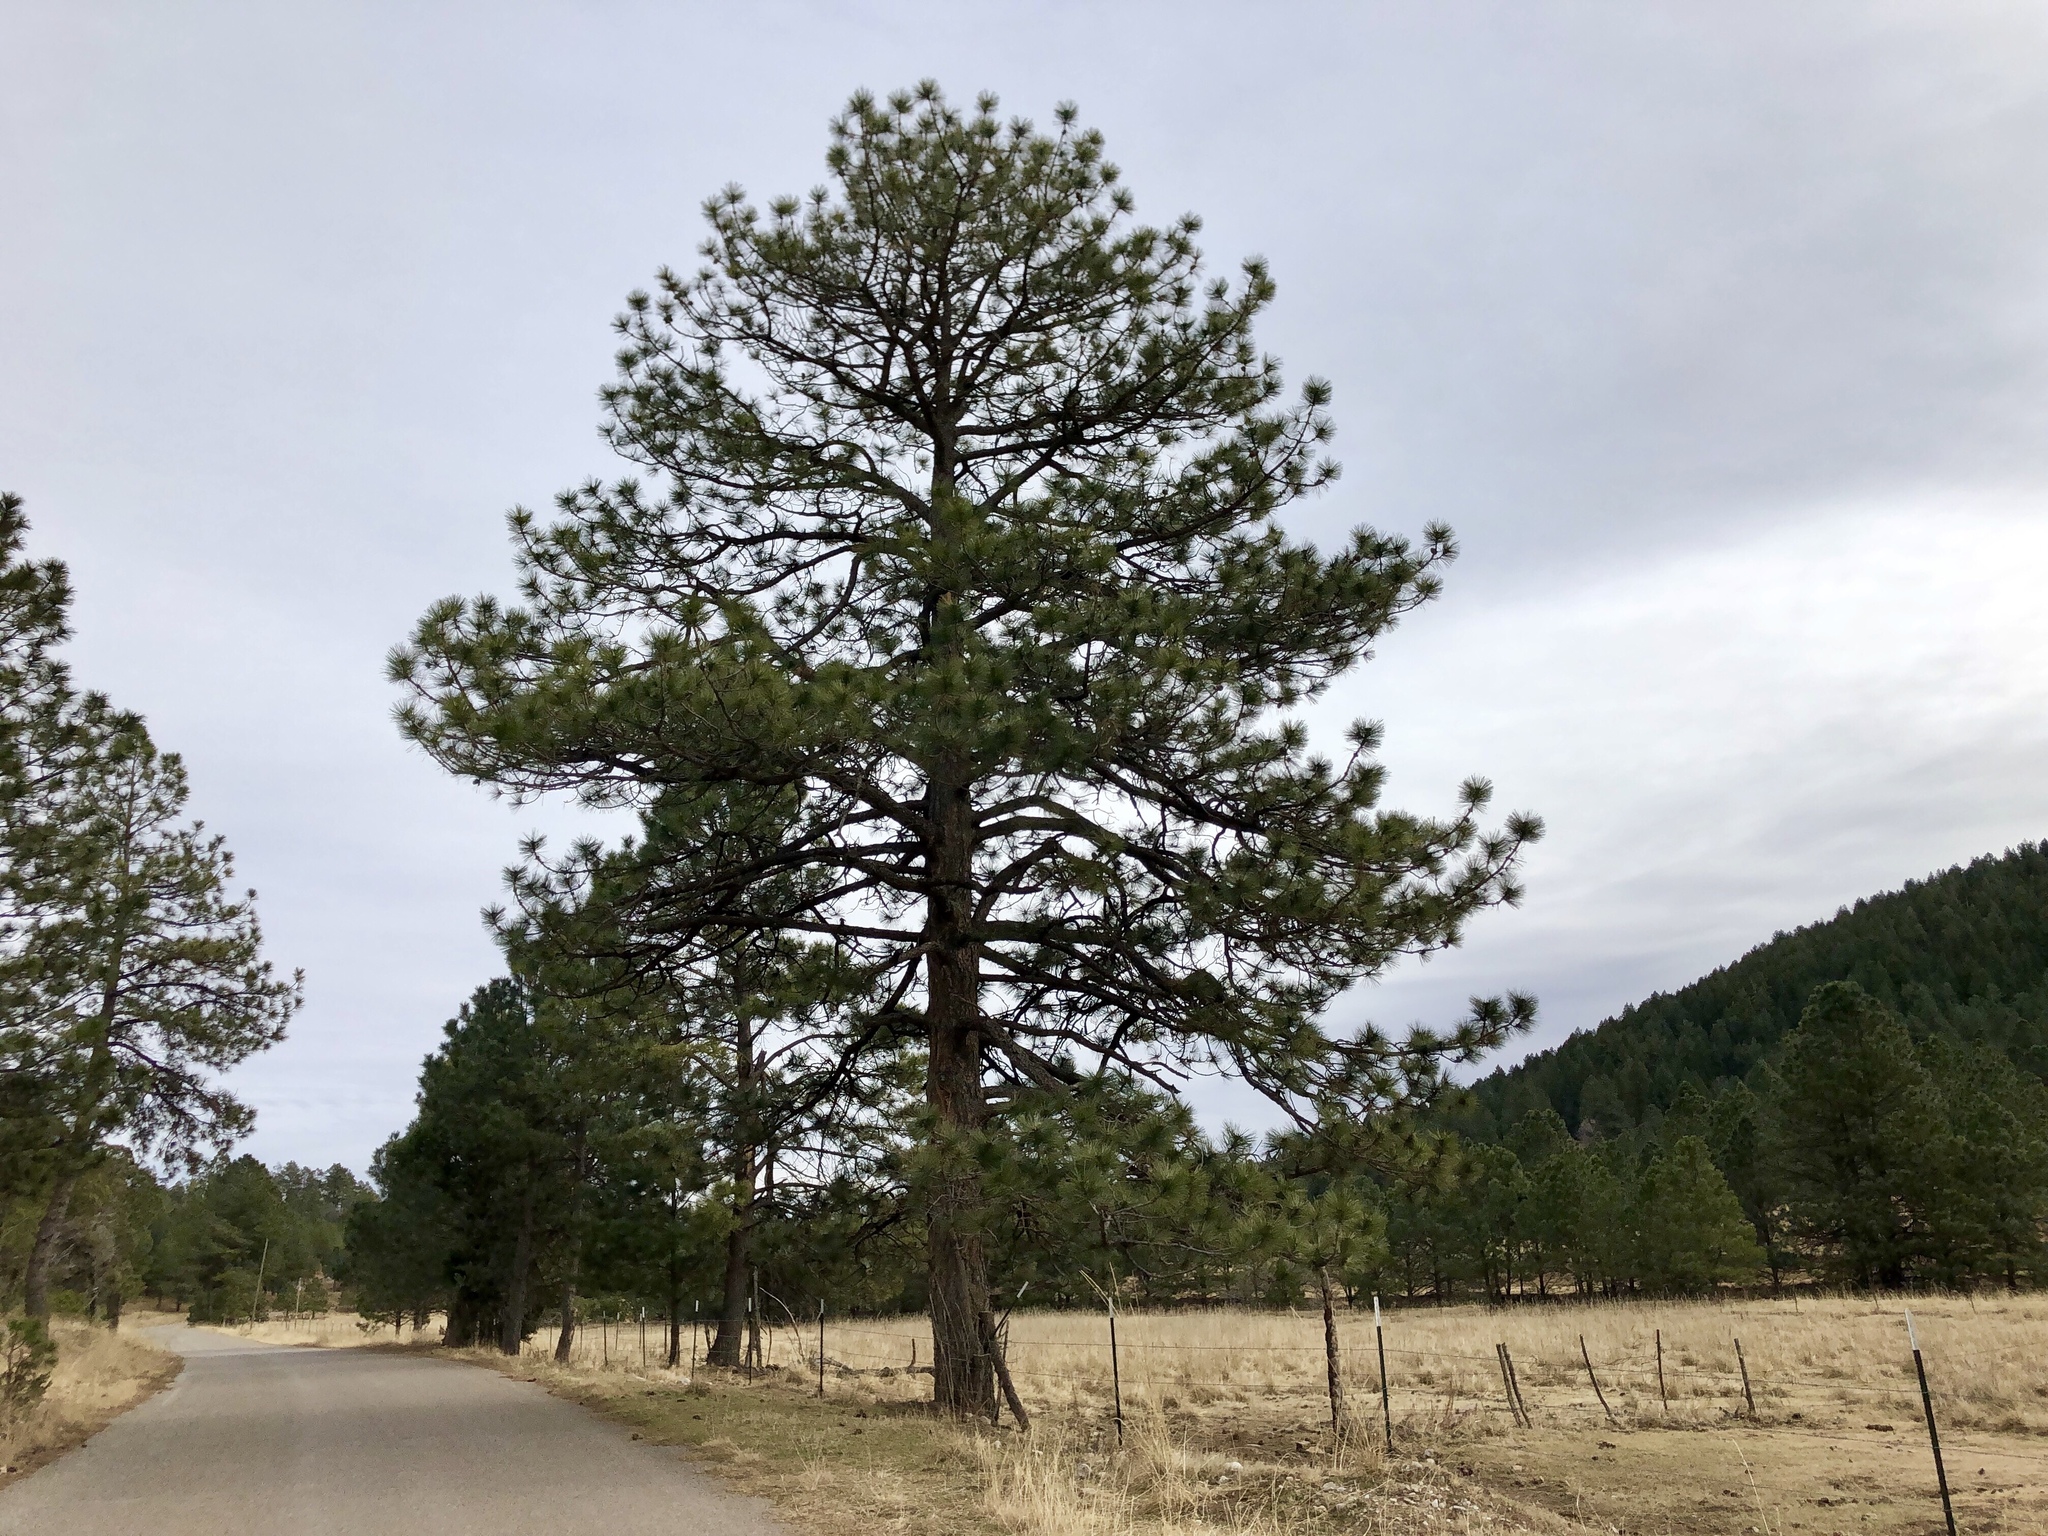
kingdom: Plantae
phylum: Tracheophyta
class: Pinopsida
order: Pinales
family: Pinaceae
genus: Pinus
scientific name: Pinus ponderosa
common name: Western yellow-pine
